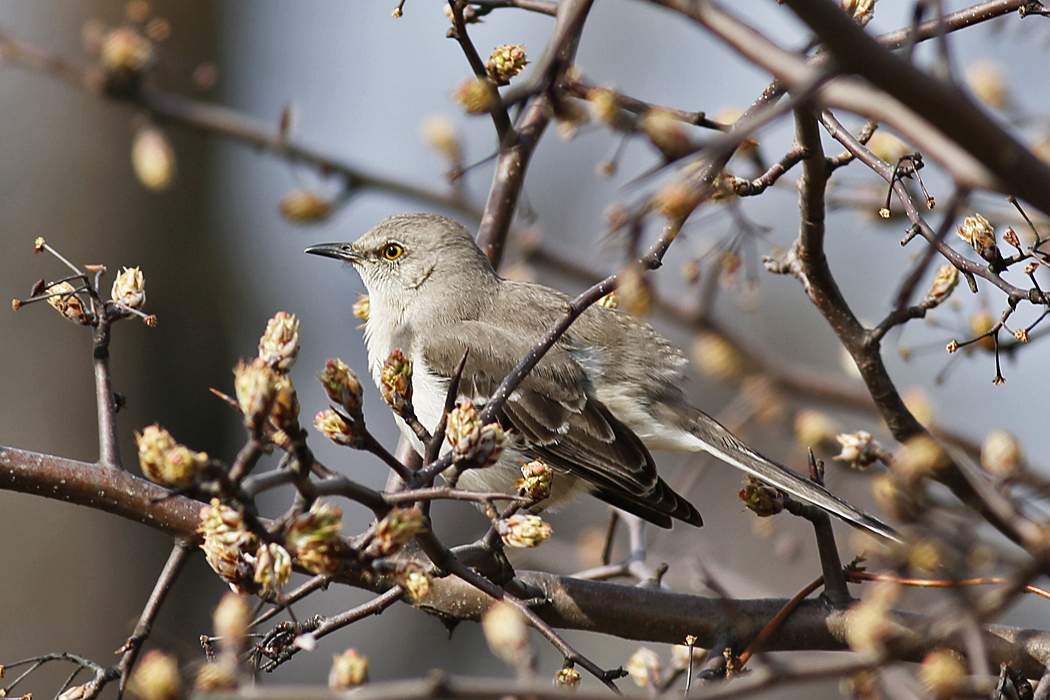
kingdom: Animalia
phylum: Chordata
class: Aves
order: Passeriformes
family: Mimidae
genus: Mimus
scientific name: Mimus polyglottos
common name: Northern mockingbird
